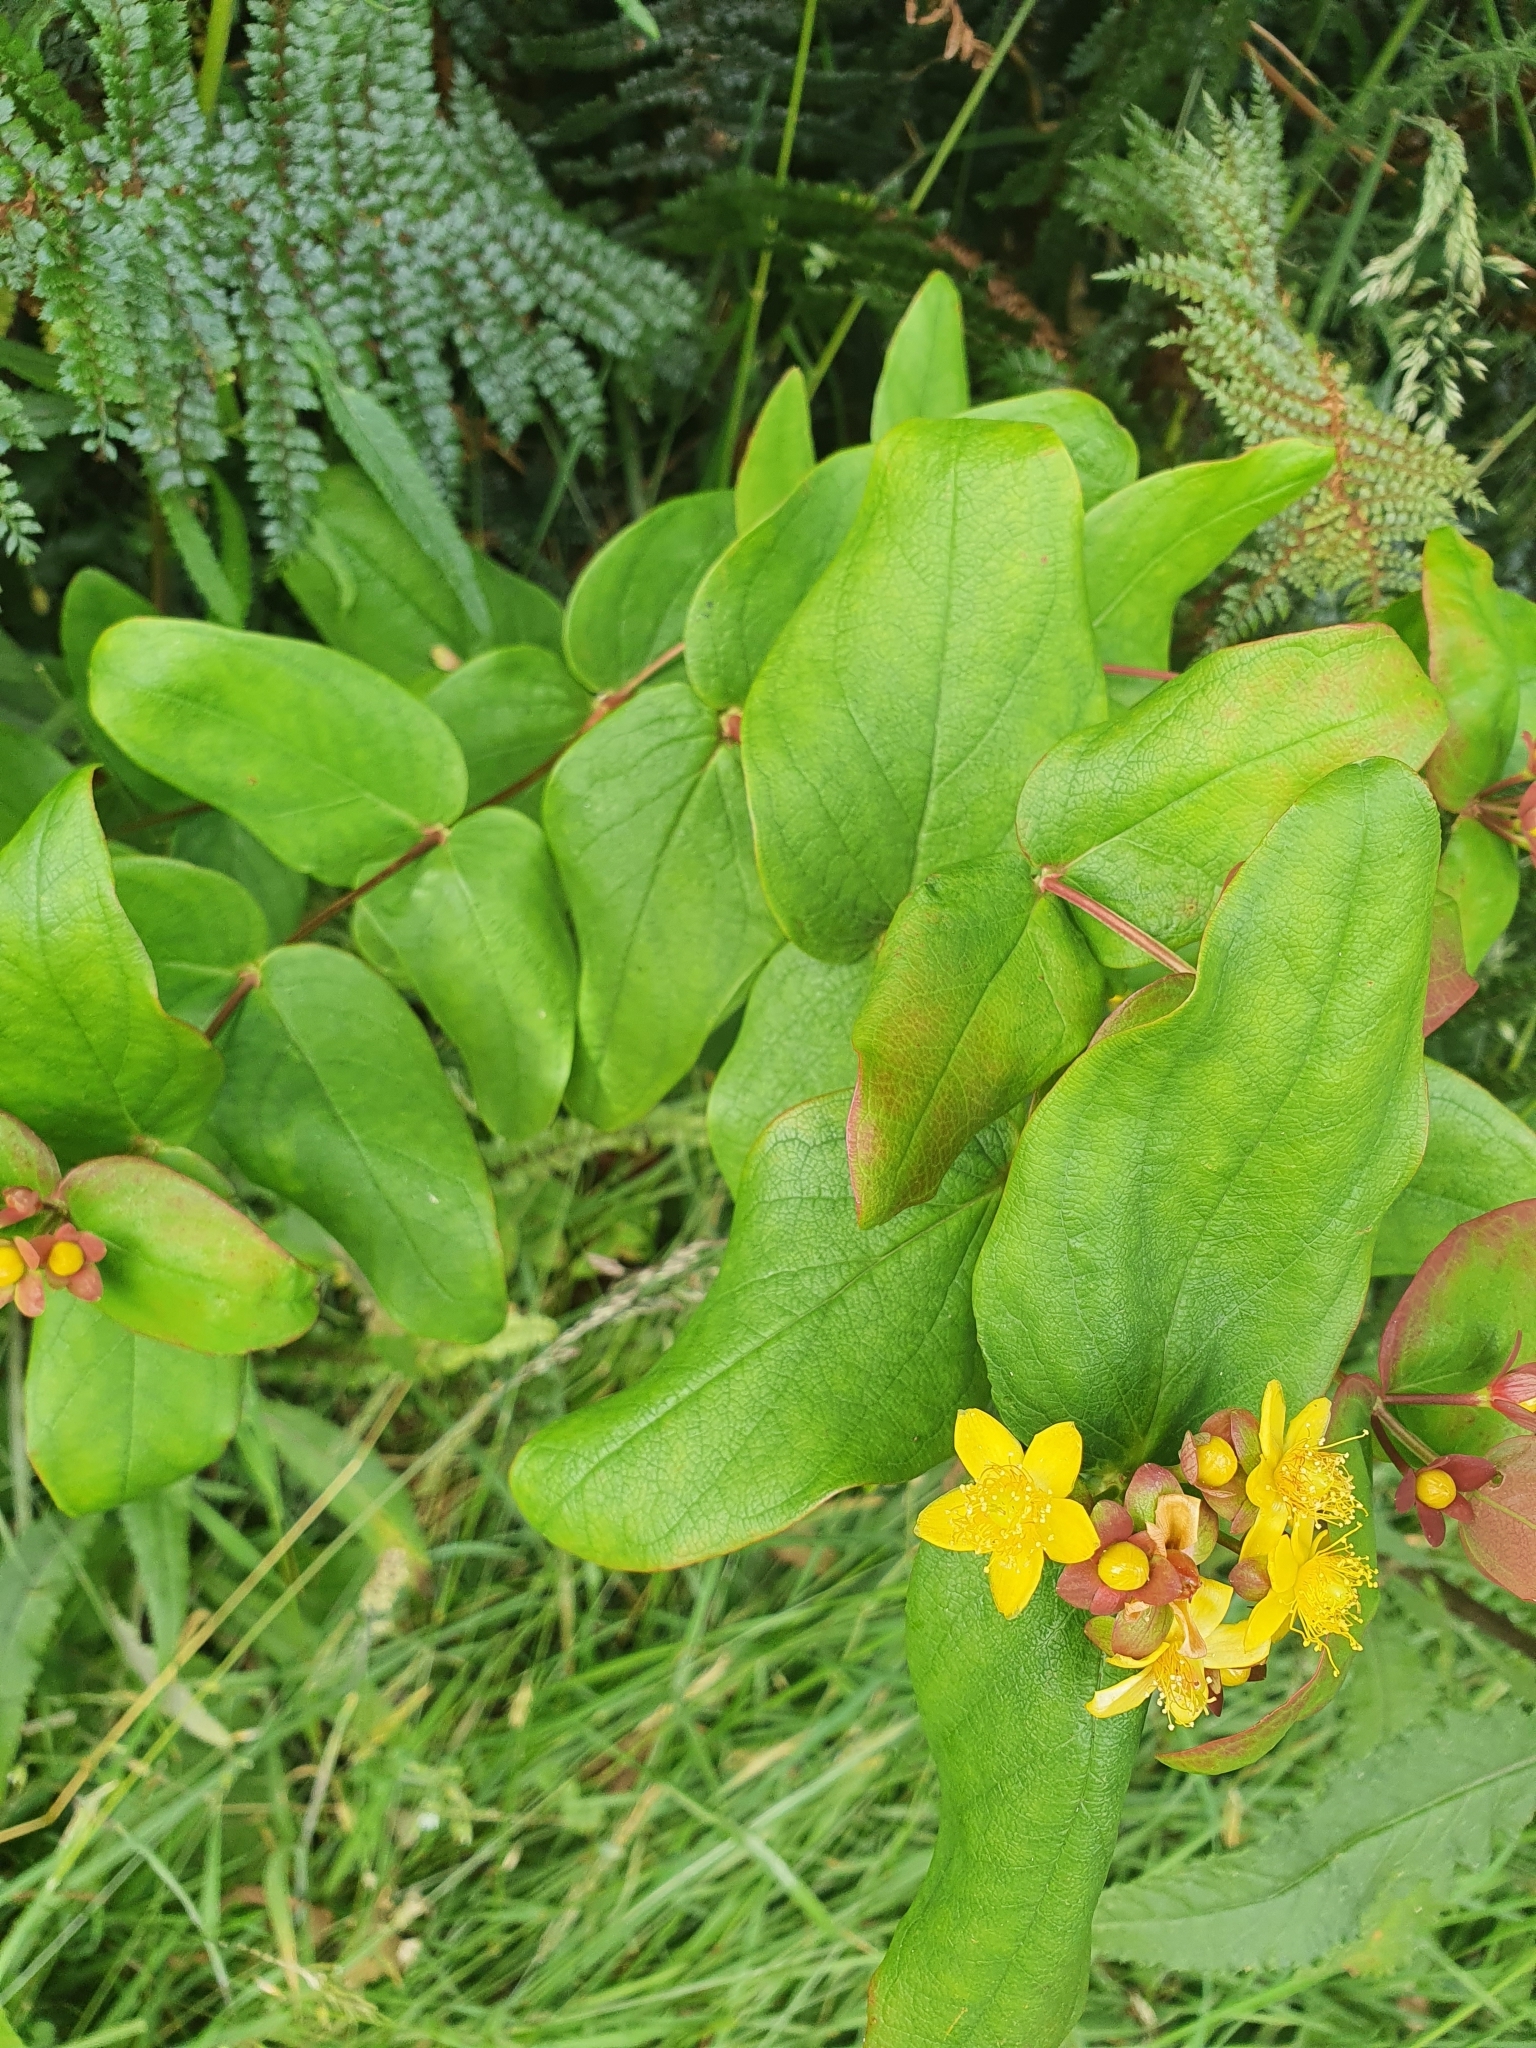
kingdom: Plantae
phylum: Tracheophyta
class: Magnoliopsida
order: Malpighiales
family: Hypericaceae
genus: Hypericum
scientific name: Hypericum androsaemum
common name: Sweet-amber
